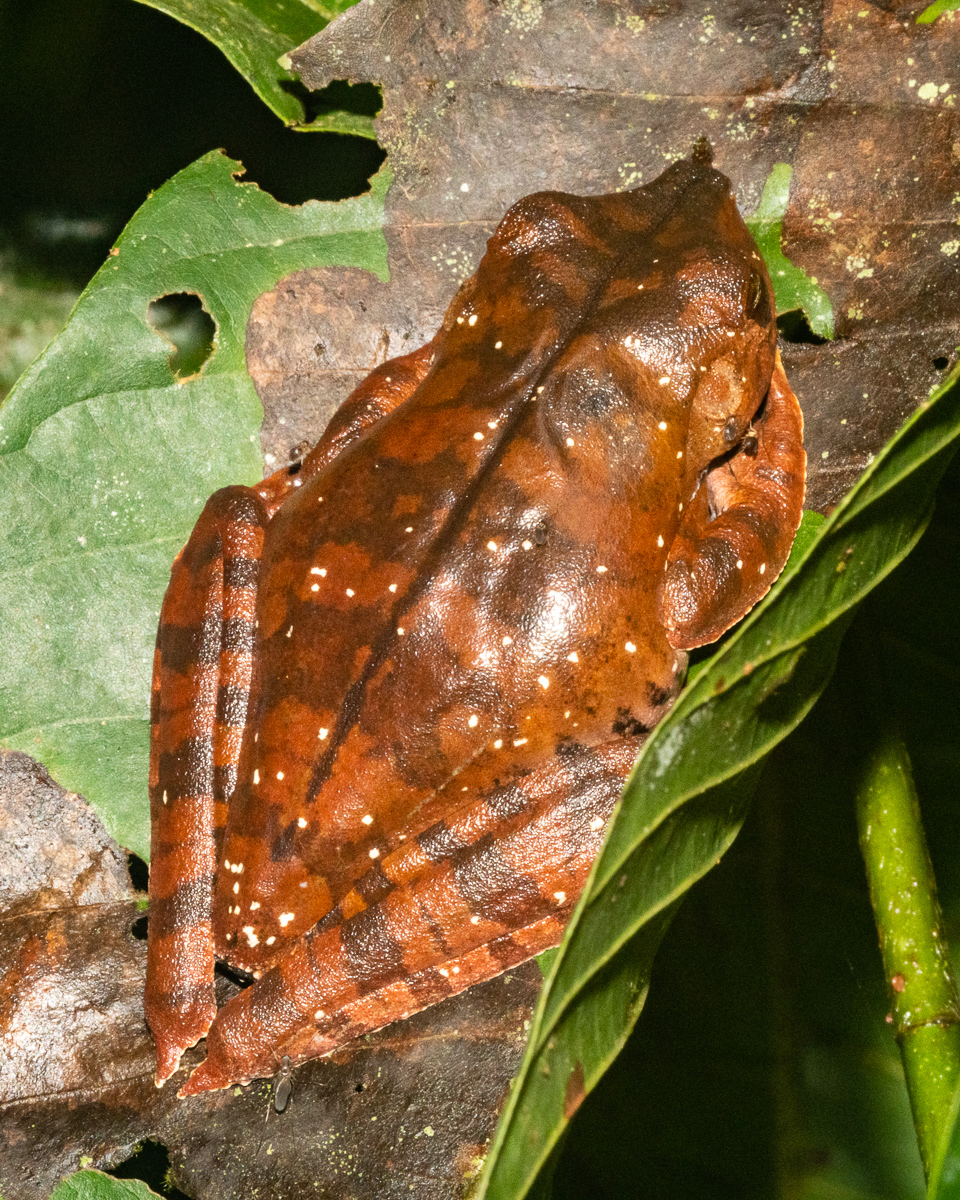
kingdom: Animalia
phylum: Chordata
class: Amphibia
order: Anura
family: Hylidae
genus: Boana
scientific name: Boana appendiculata
